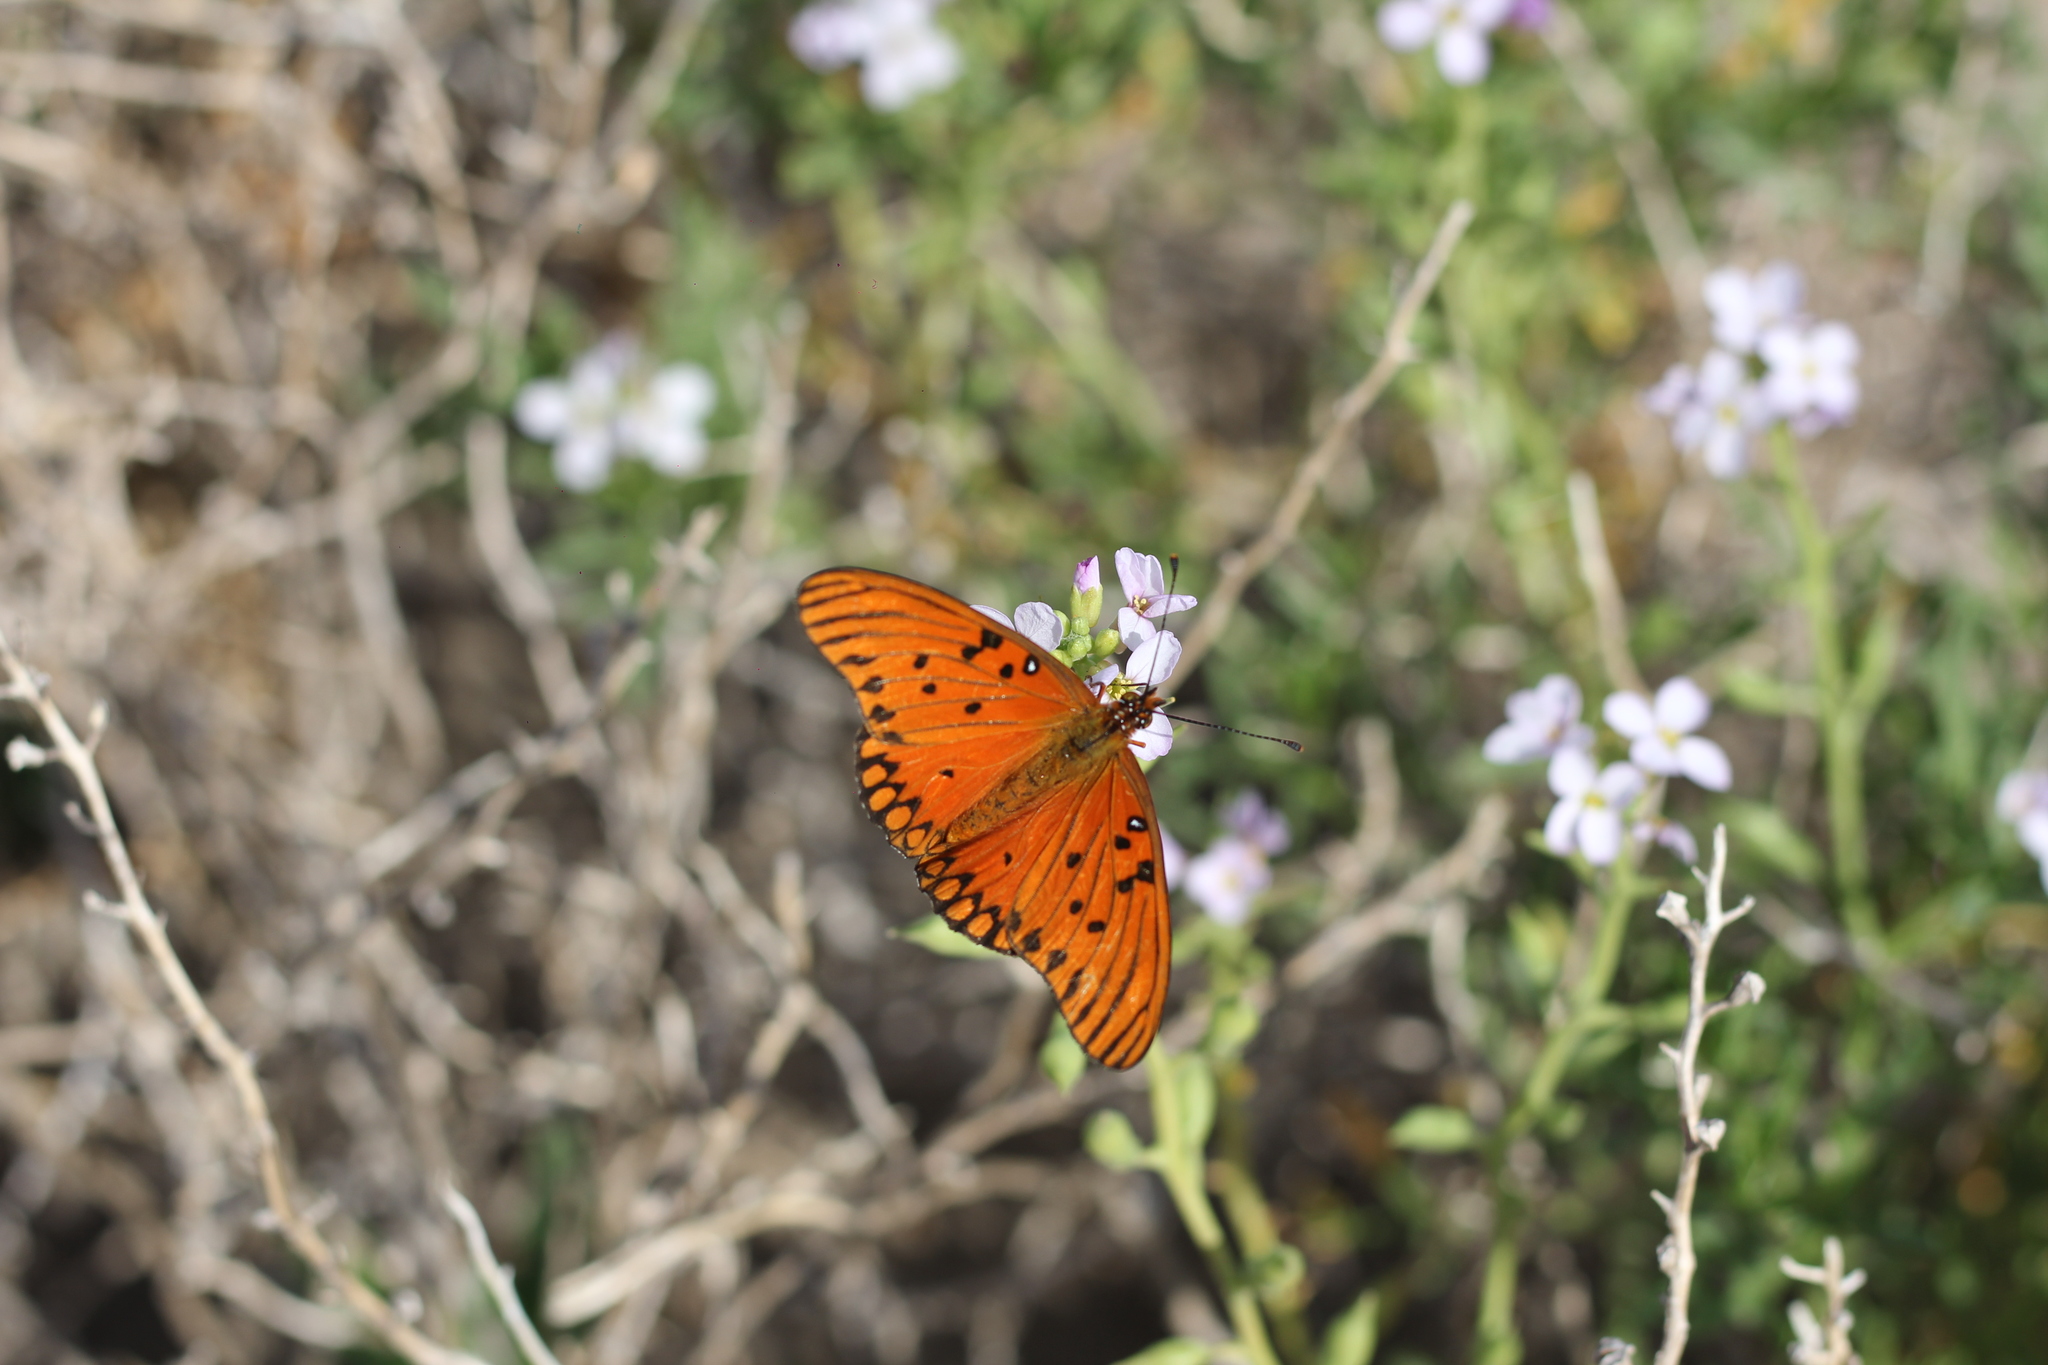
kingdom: Animalia
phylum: Arthropoda
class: Insecta
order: Lepidoptera
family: Nymphalidae
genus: Dione
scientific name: Dione vanillae
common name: Gulf fritillary
